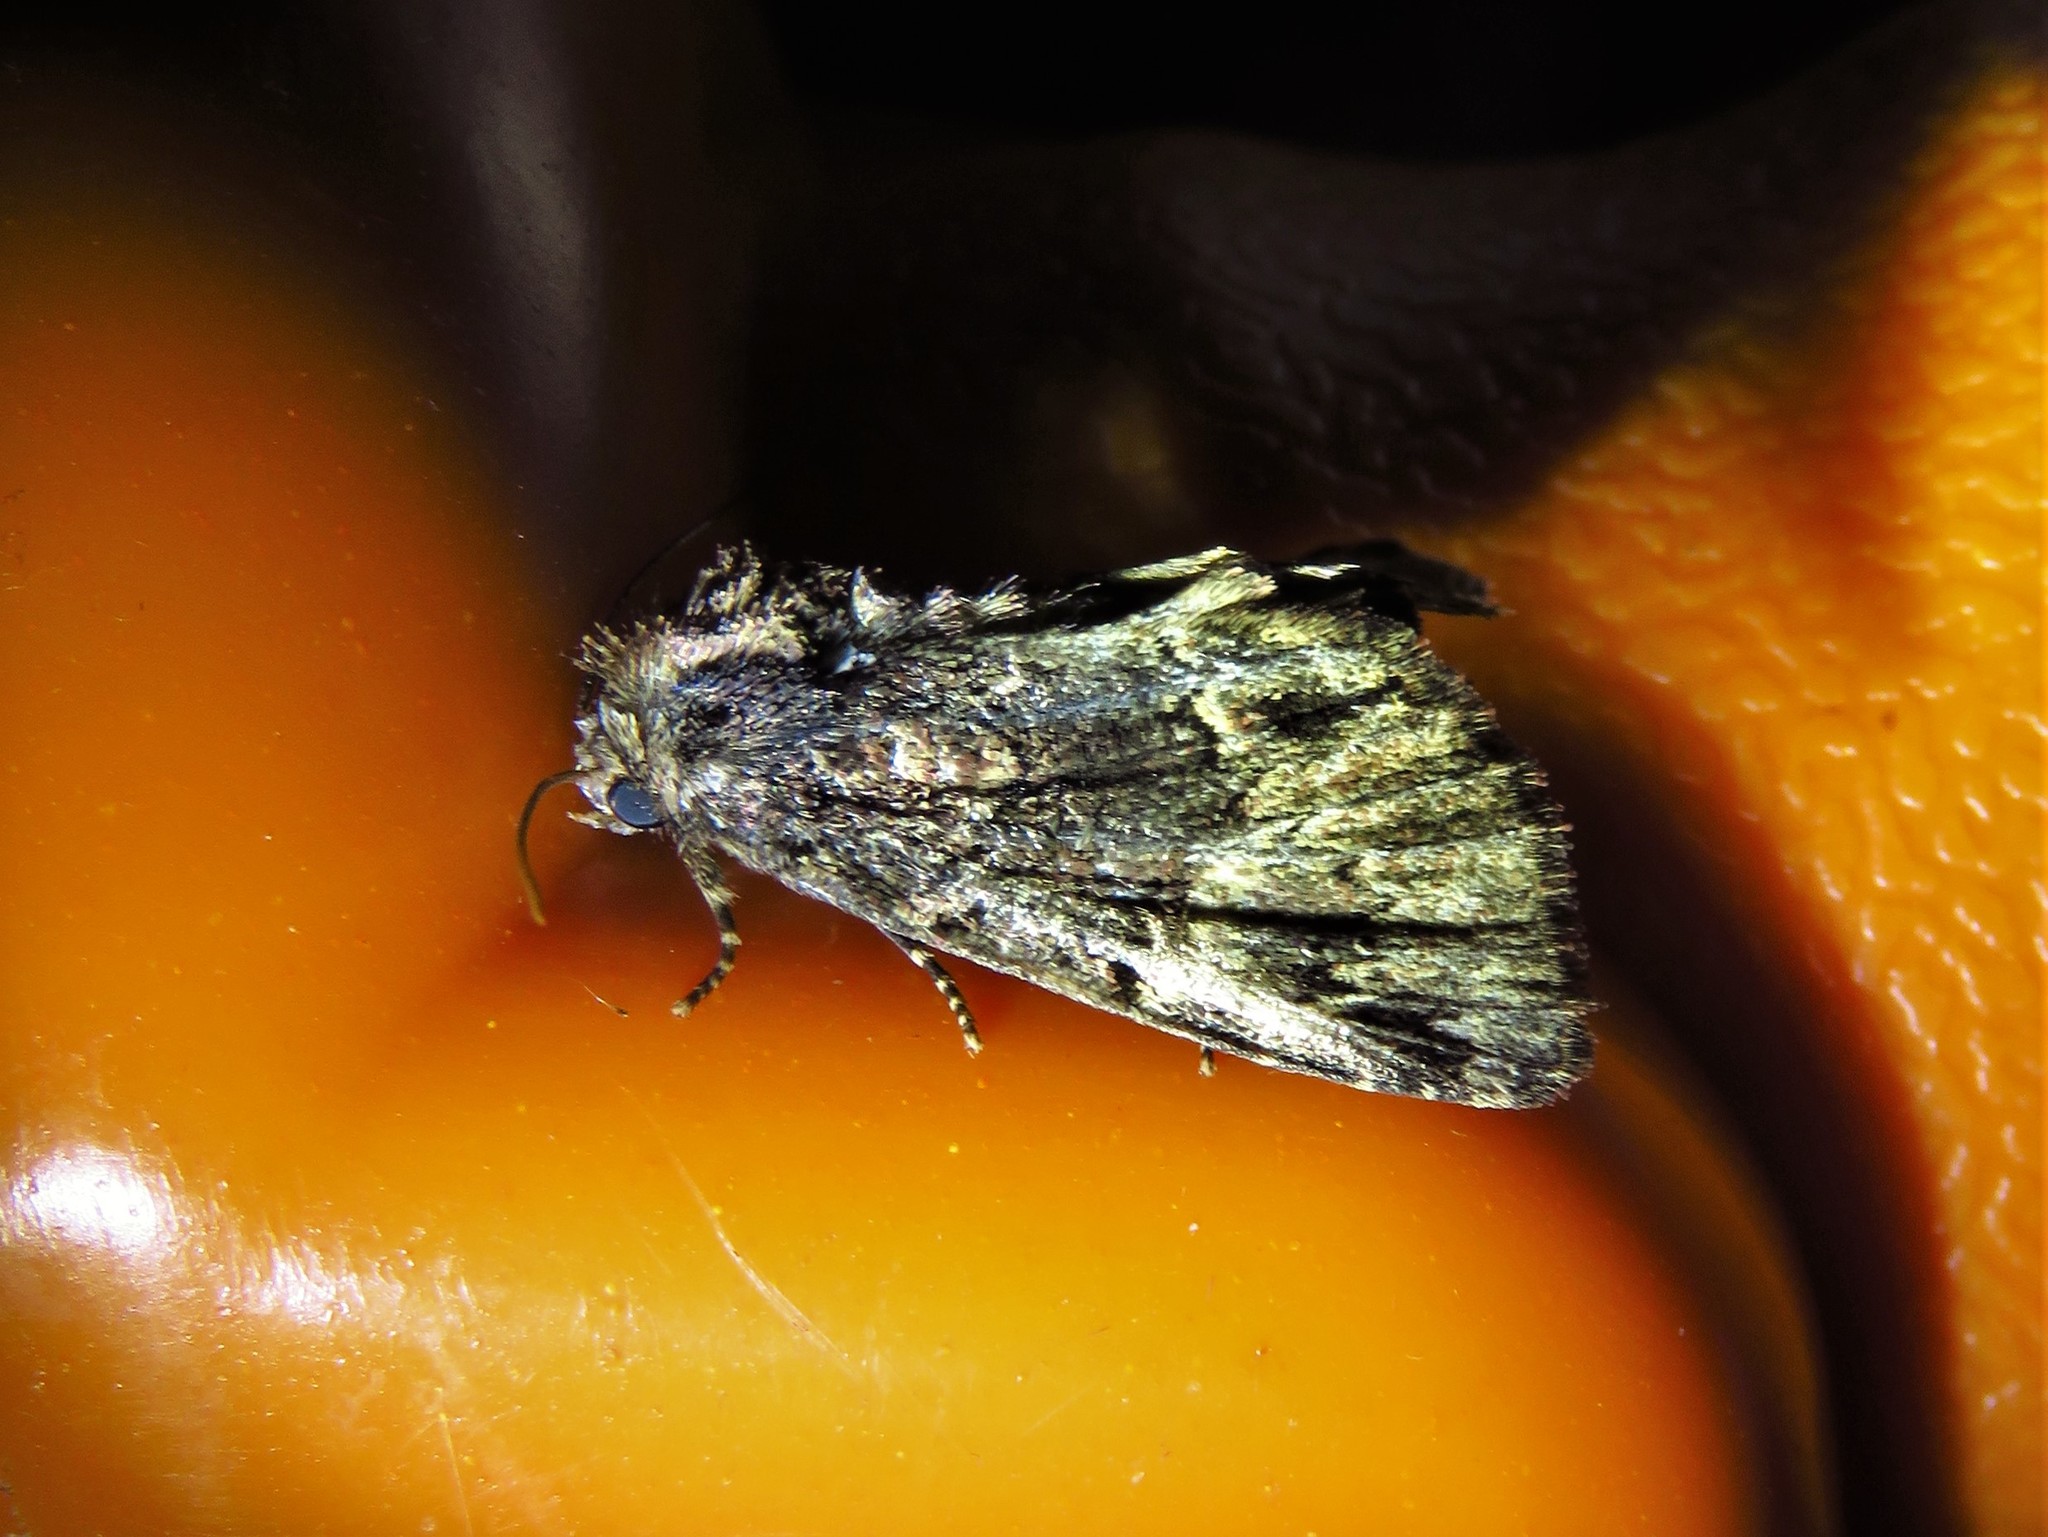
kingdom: Animalia
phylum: Arthropoda
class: Insecta
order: Lepidoptera
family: Noctuidae
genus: Phosphila
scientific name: Phosphila turbulenta
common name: Turbulent phosphila moth
